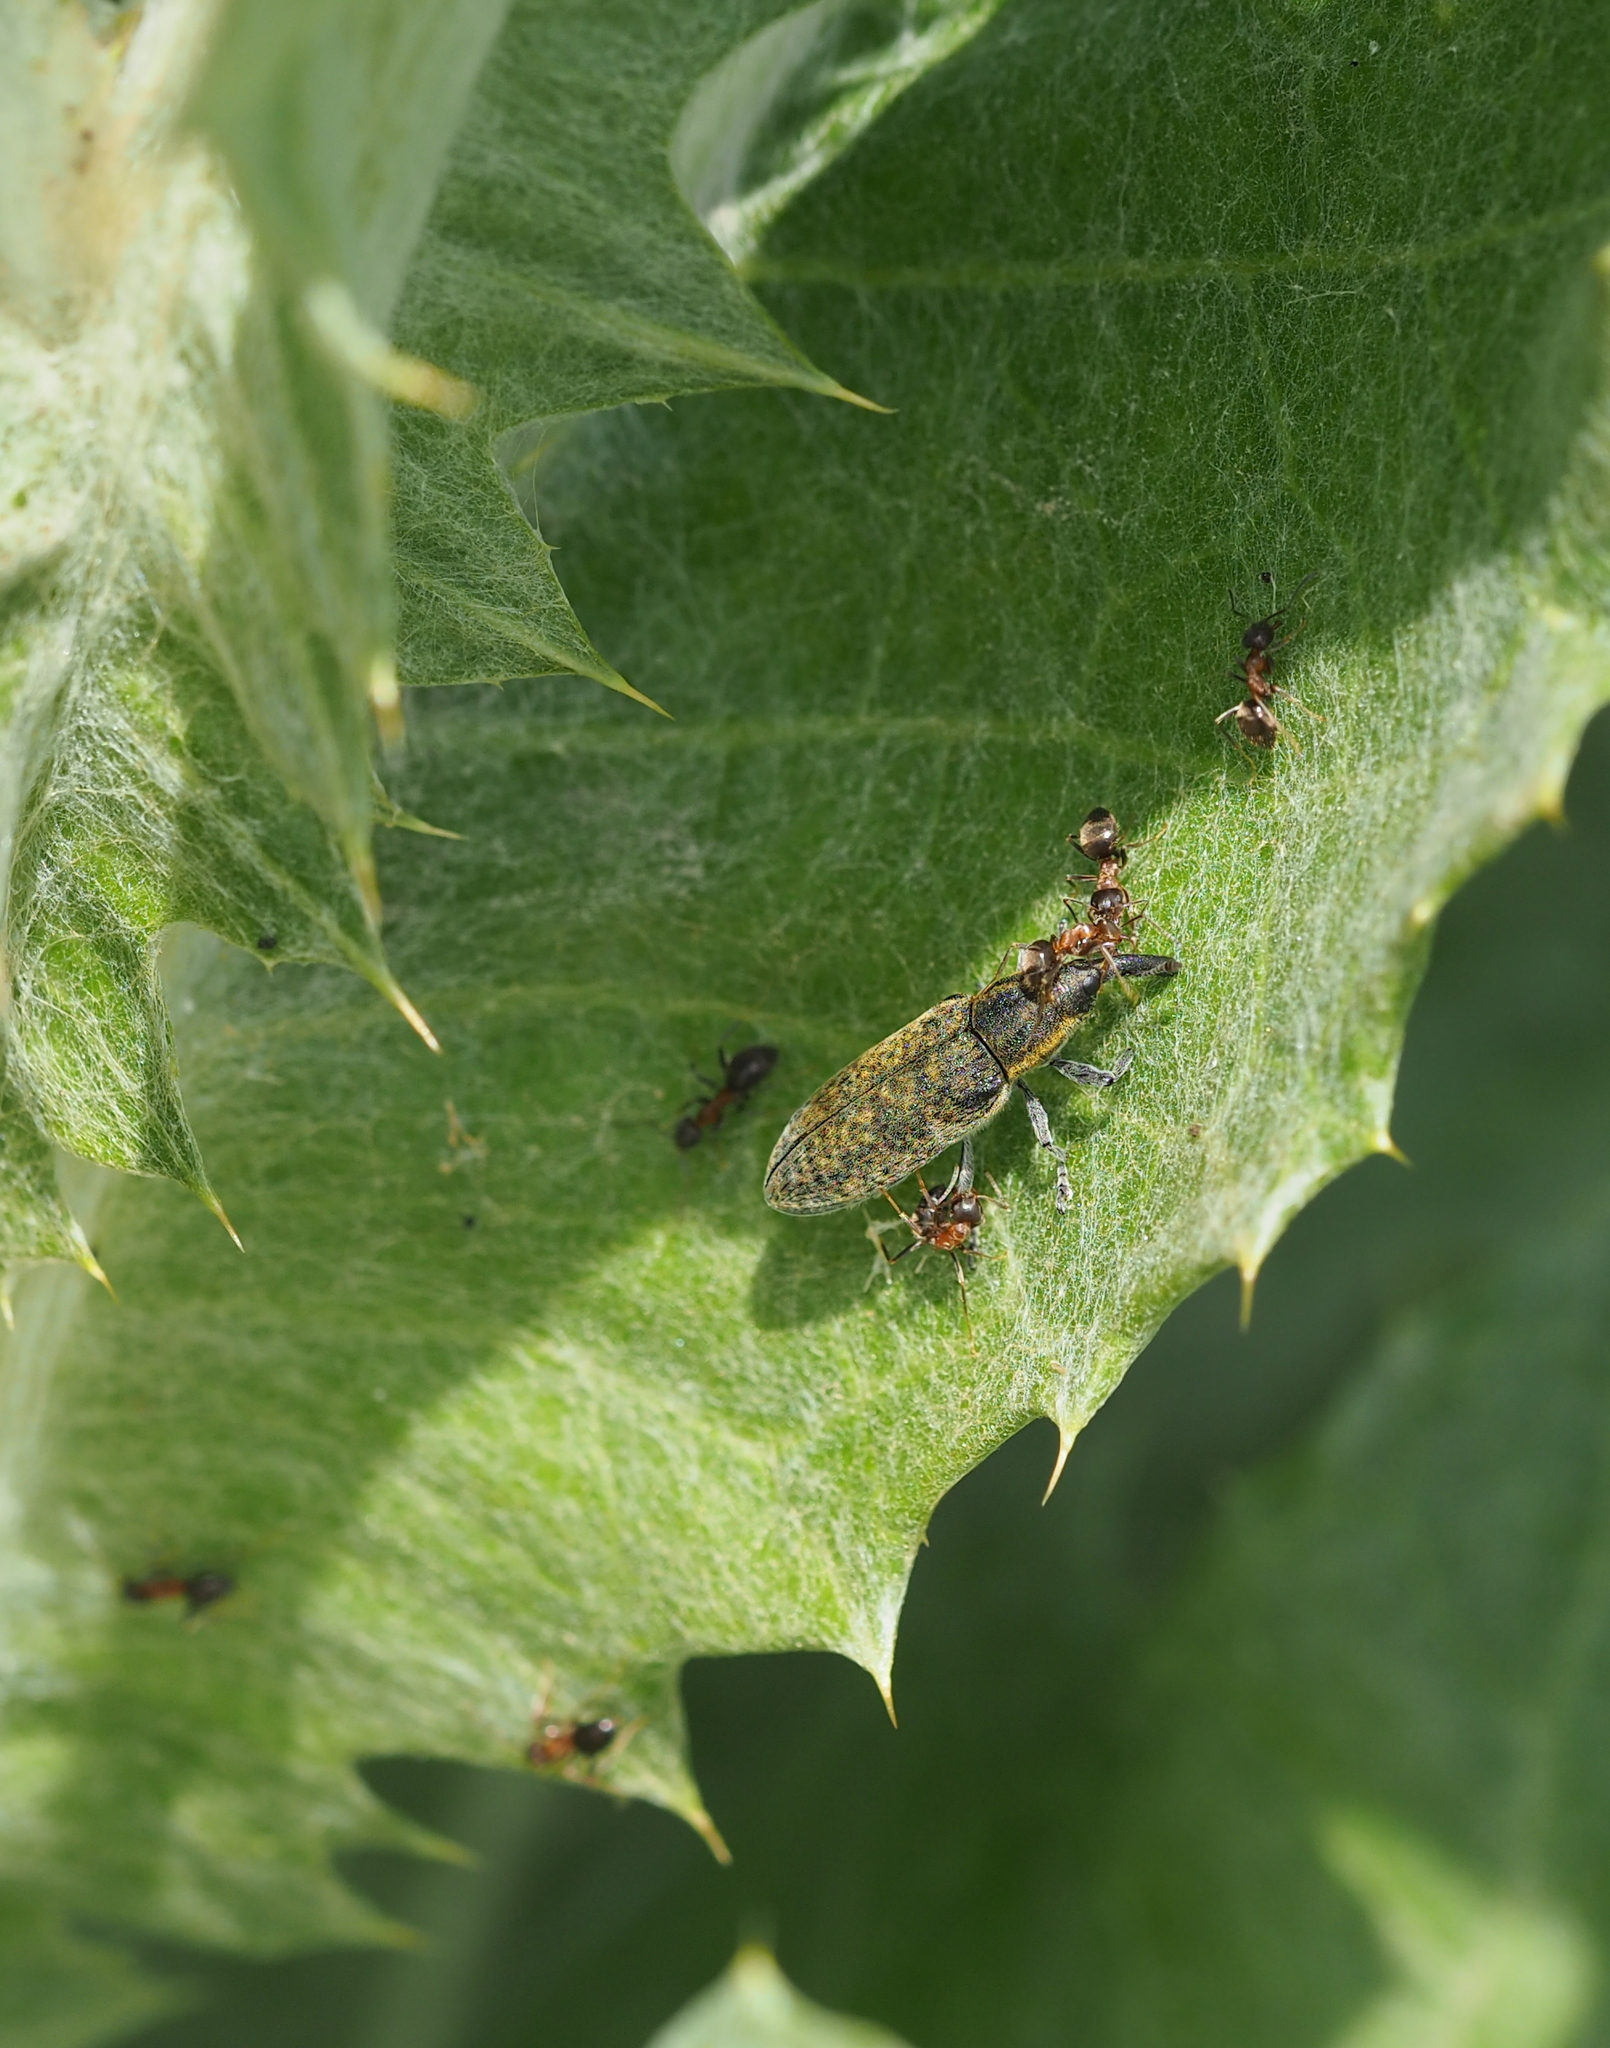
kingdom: Animalia
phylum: Arthropoda
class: Insecta
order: Coleoptera
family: Curculionidae
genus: Lixus
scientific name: Lixus cardui
